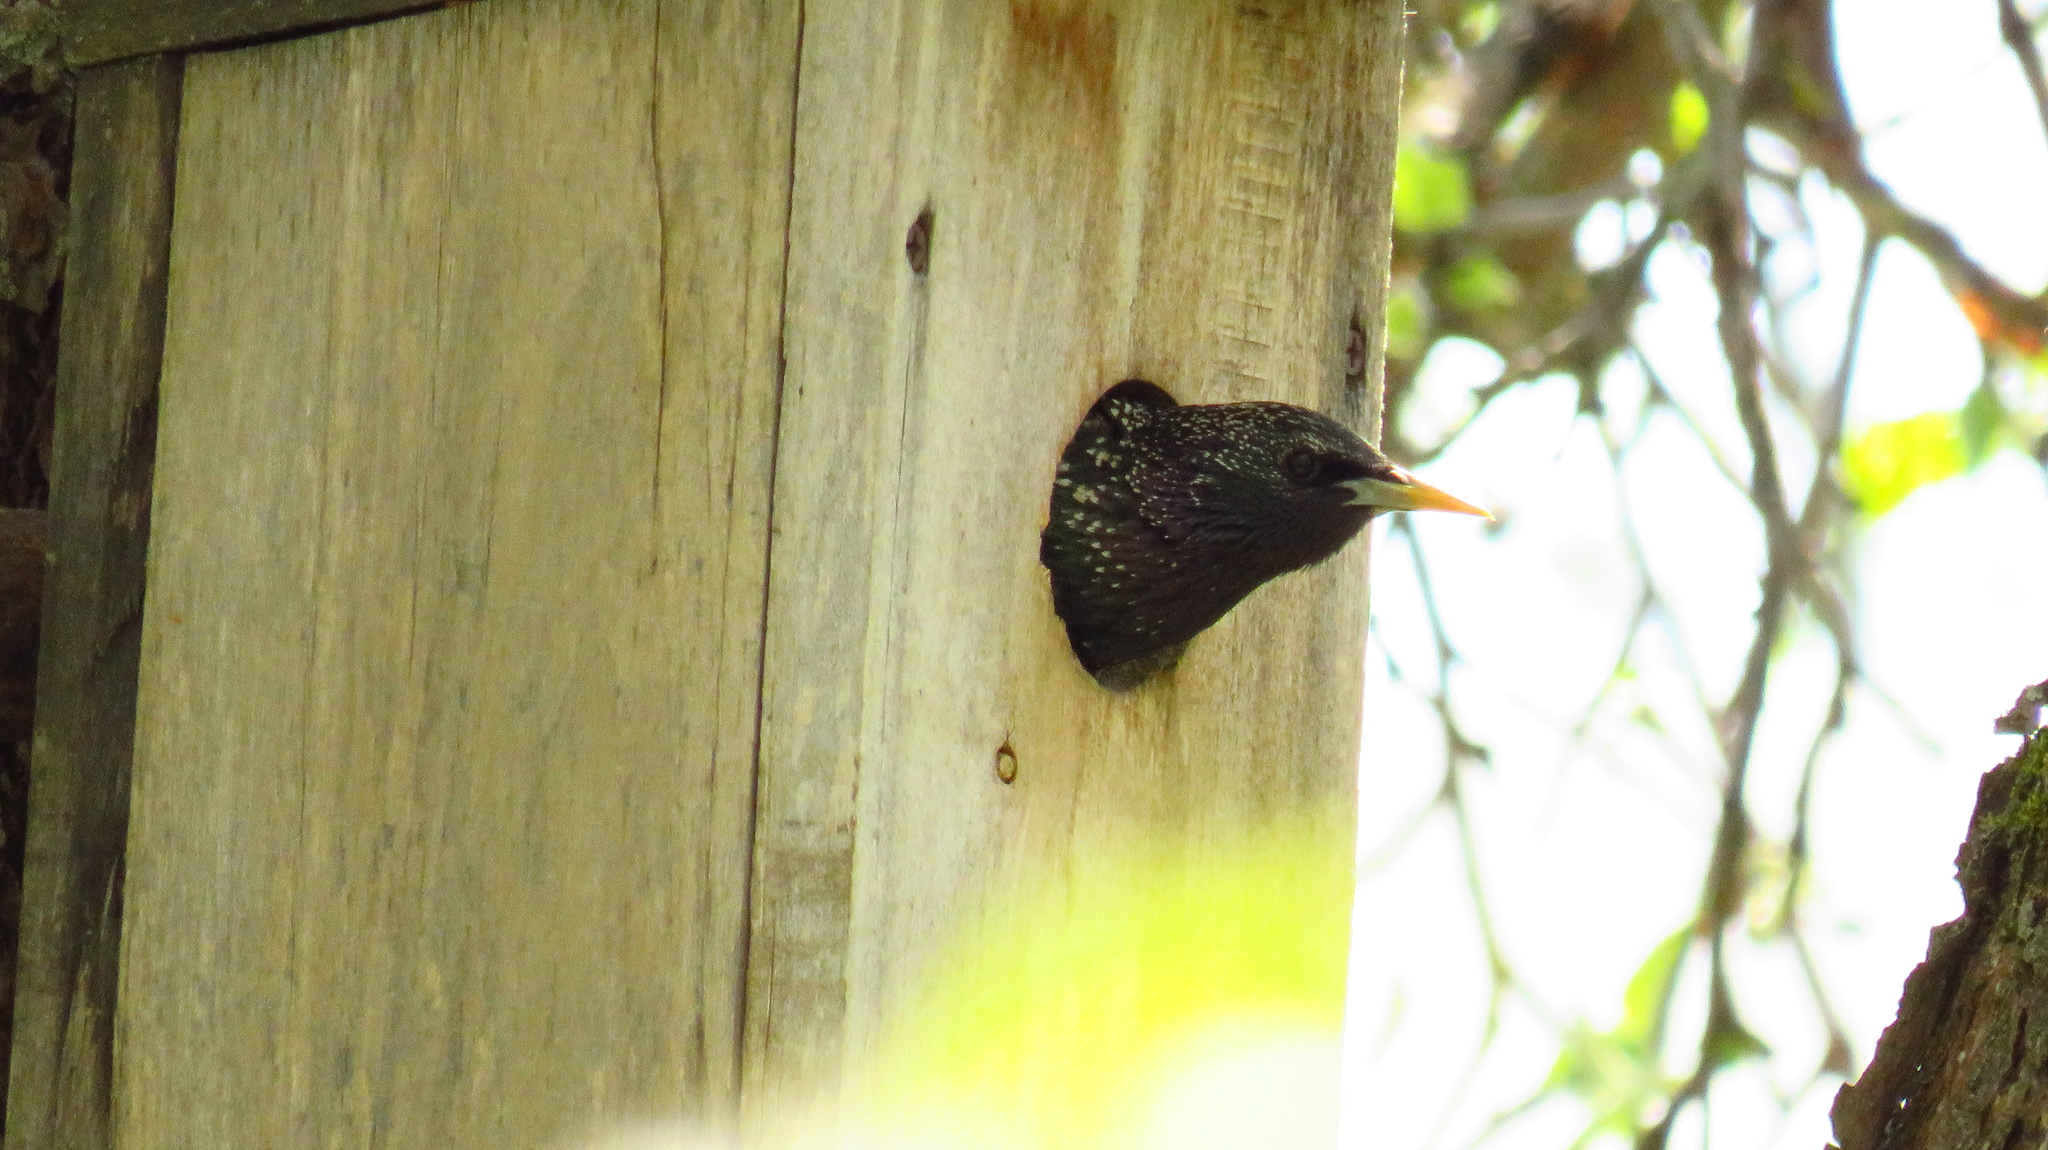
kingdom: Animalia
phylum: Chordata
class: Aves
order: Passeriformes
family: Sturnidae
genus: Sturnus
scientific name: Sturnus vulgaris
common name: Common starling
